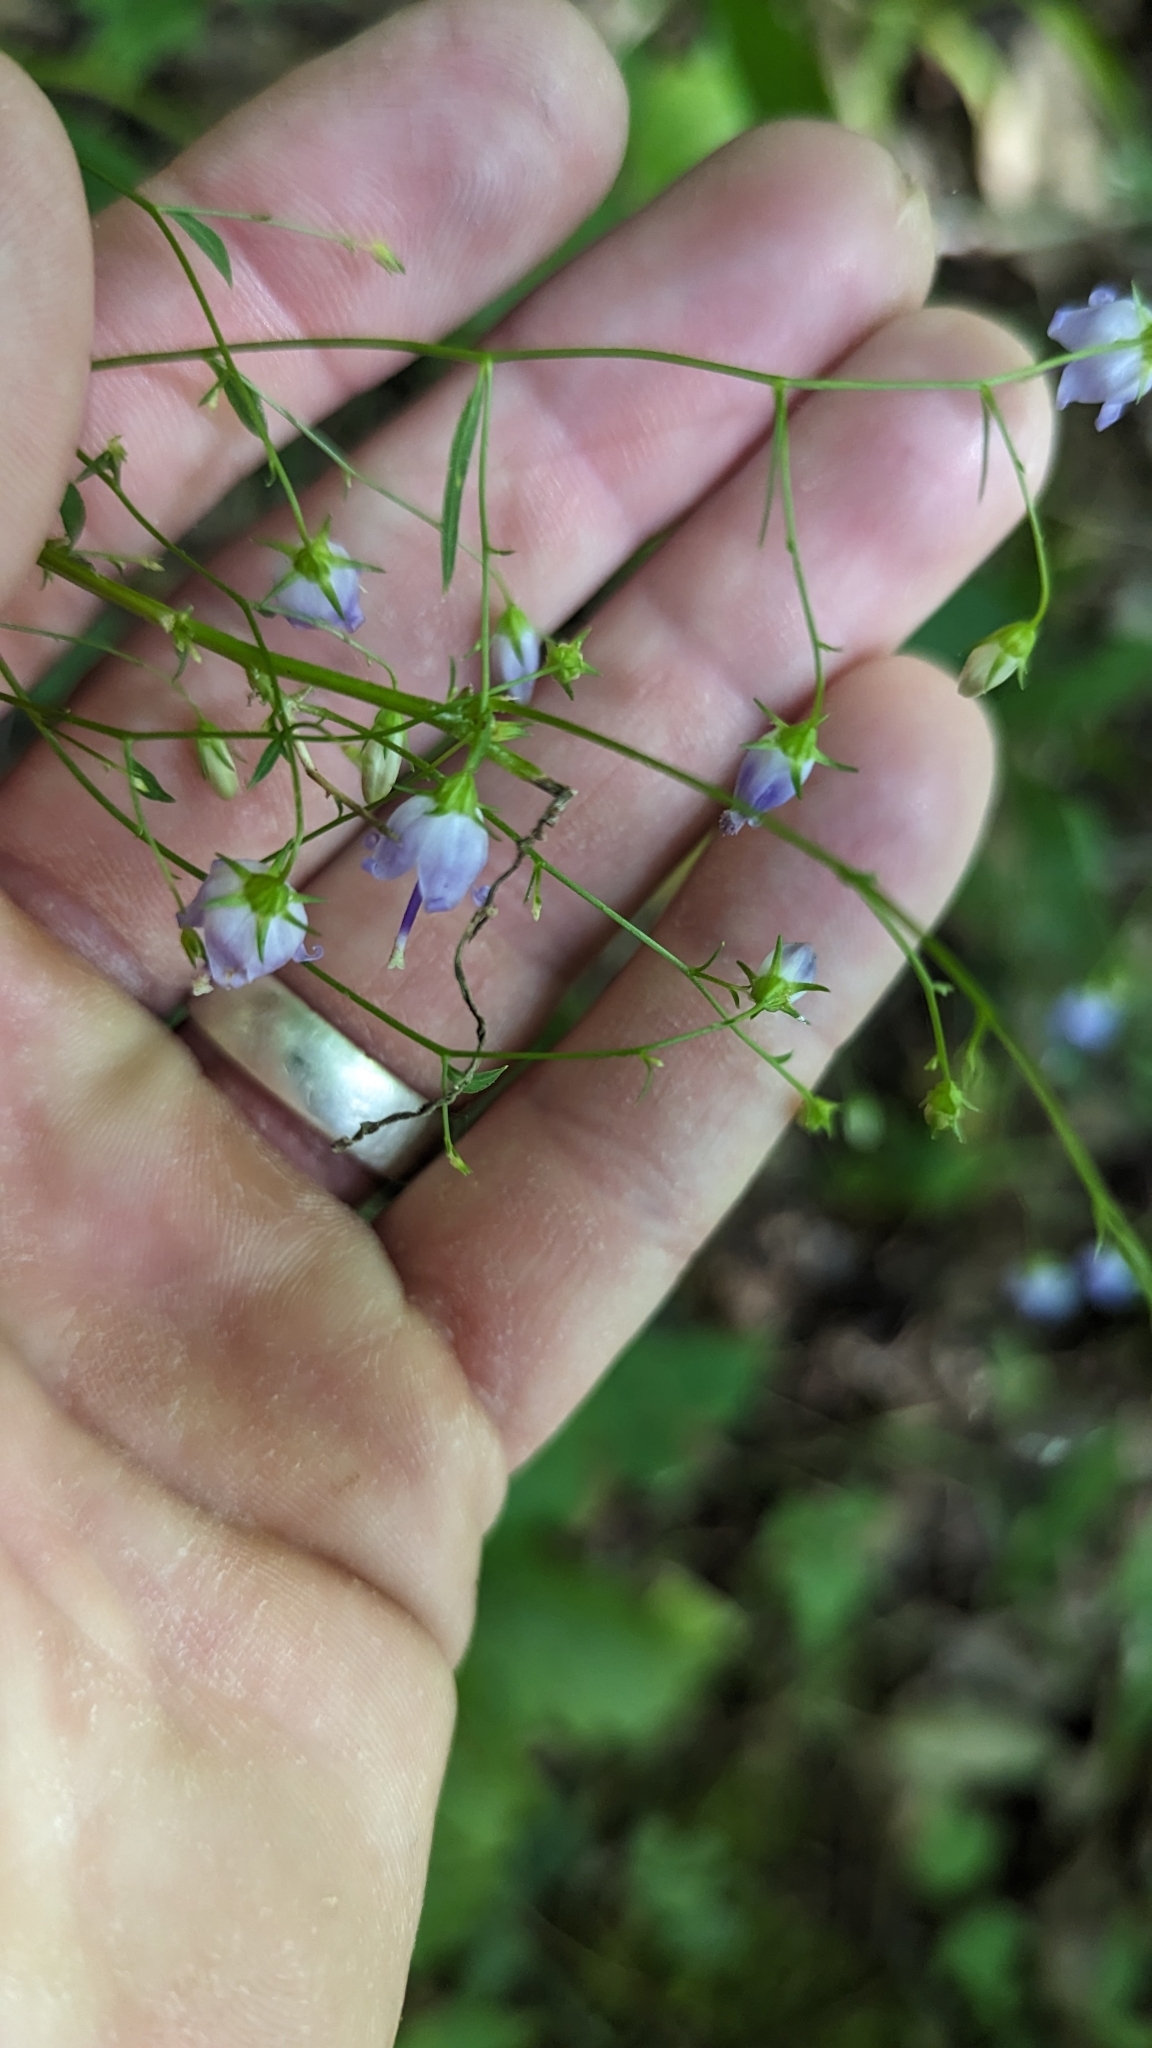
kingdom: Plantae
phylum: Tracheophyta
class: Magnoliopsida
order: Asterales
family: Campanulaceae
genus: Campanula
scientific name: Campanula divaricata
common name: Appalachian bellflower
